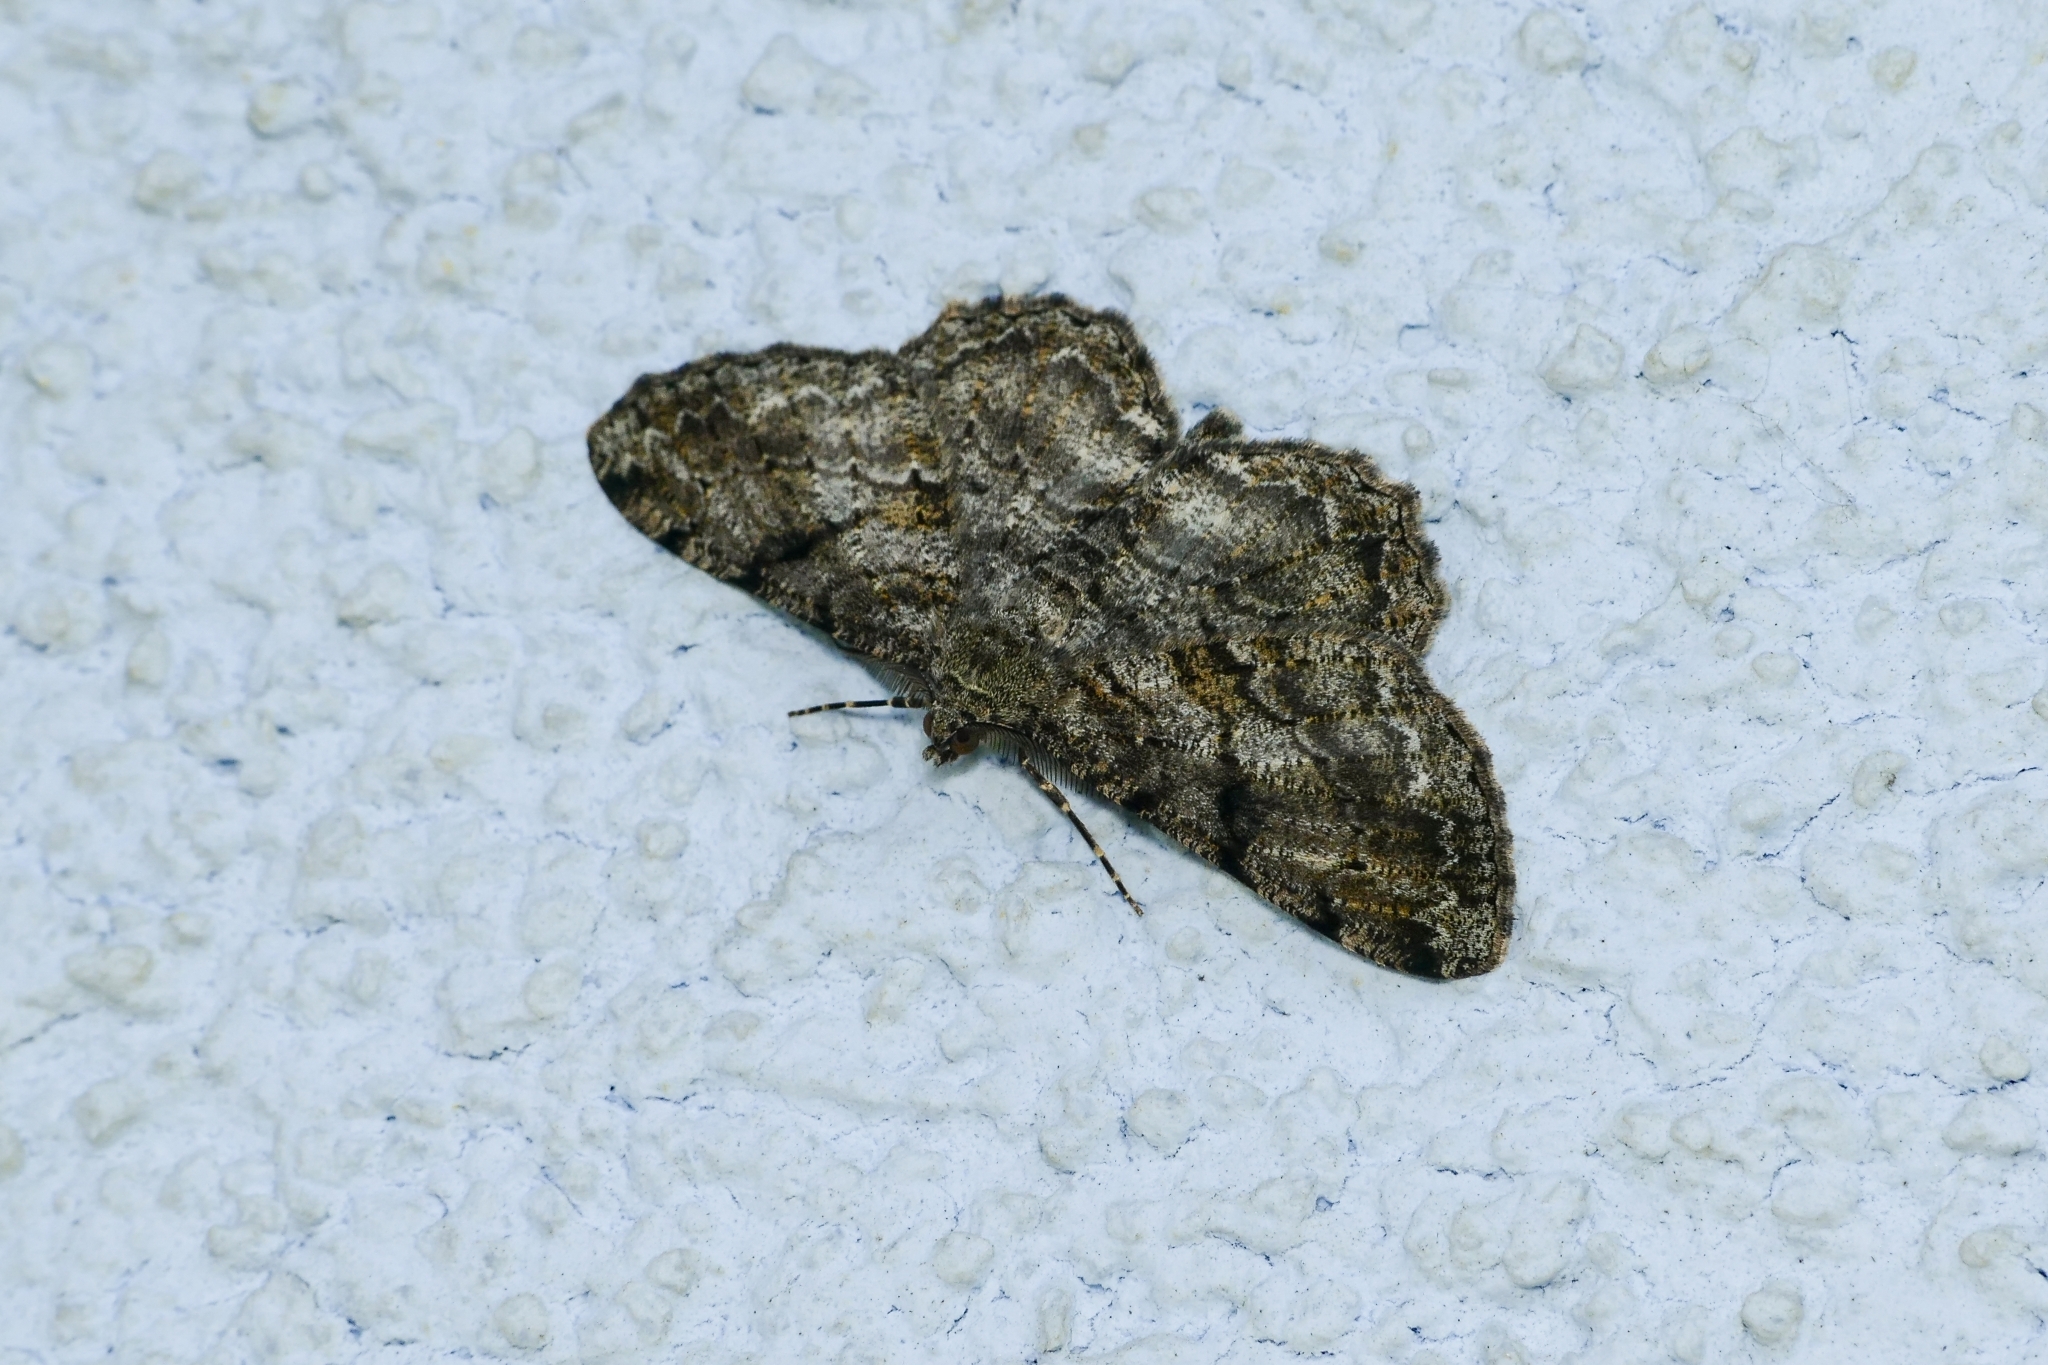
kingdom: Animalia
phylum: Arthropoda
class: Insecta
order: Lepidoptera
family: Geometridae
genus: Peribatodes
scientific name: Peribatodes rhomboidaria
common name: Willow beauty
